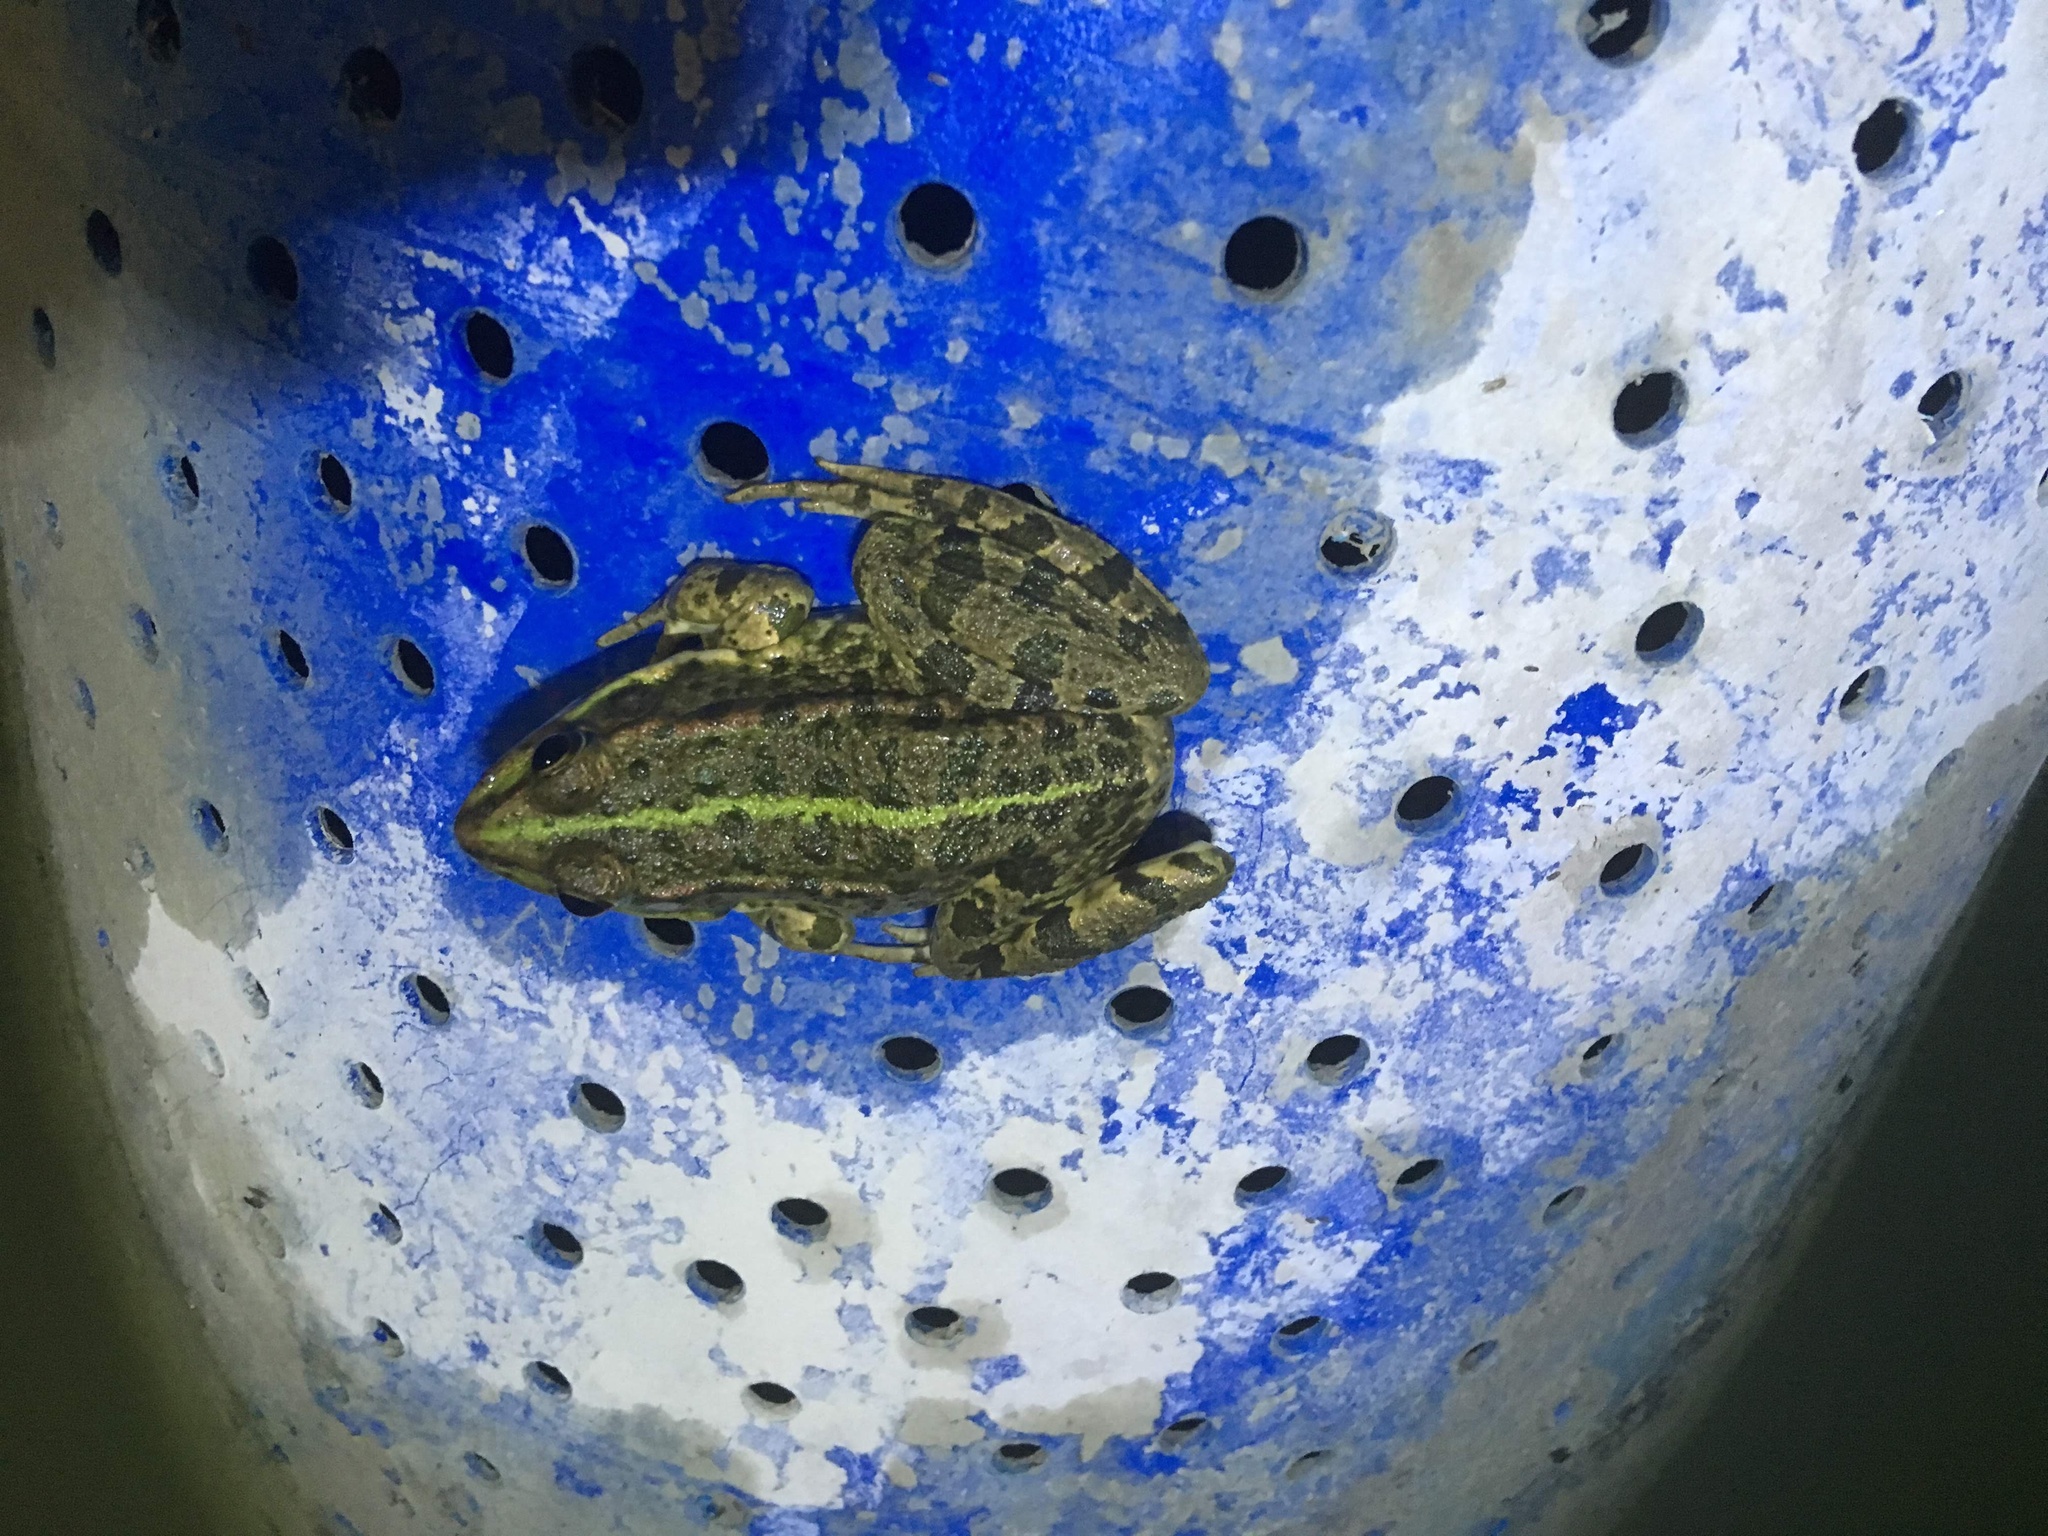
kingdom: Animalia
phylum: Chordata
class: Amphibia
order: Anura
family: Ranidae
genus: Pelophylax
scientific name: Pelophylax ridibundus
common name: Marsh frog
